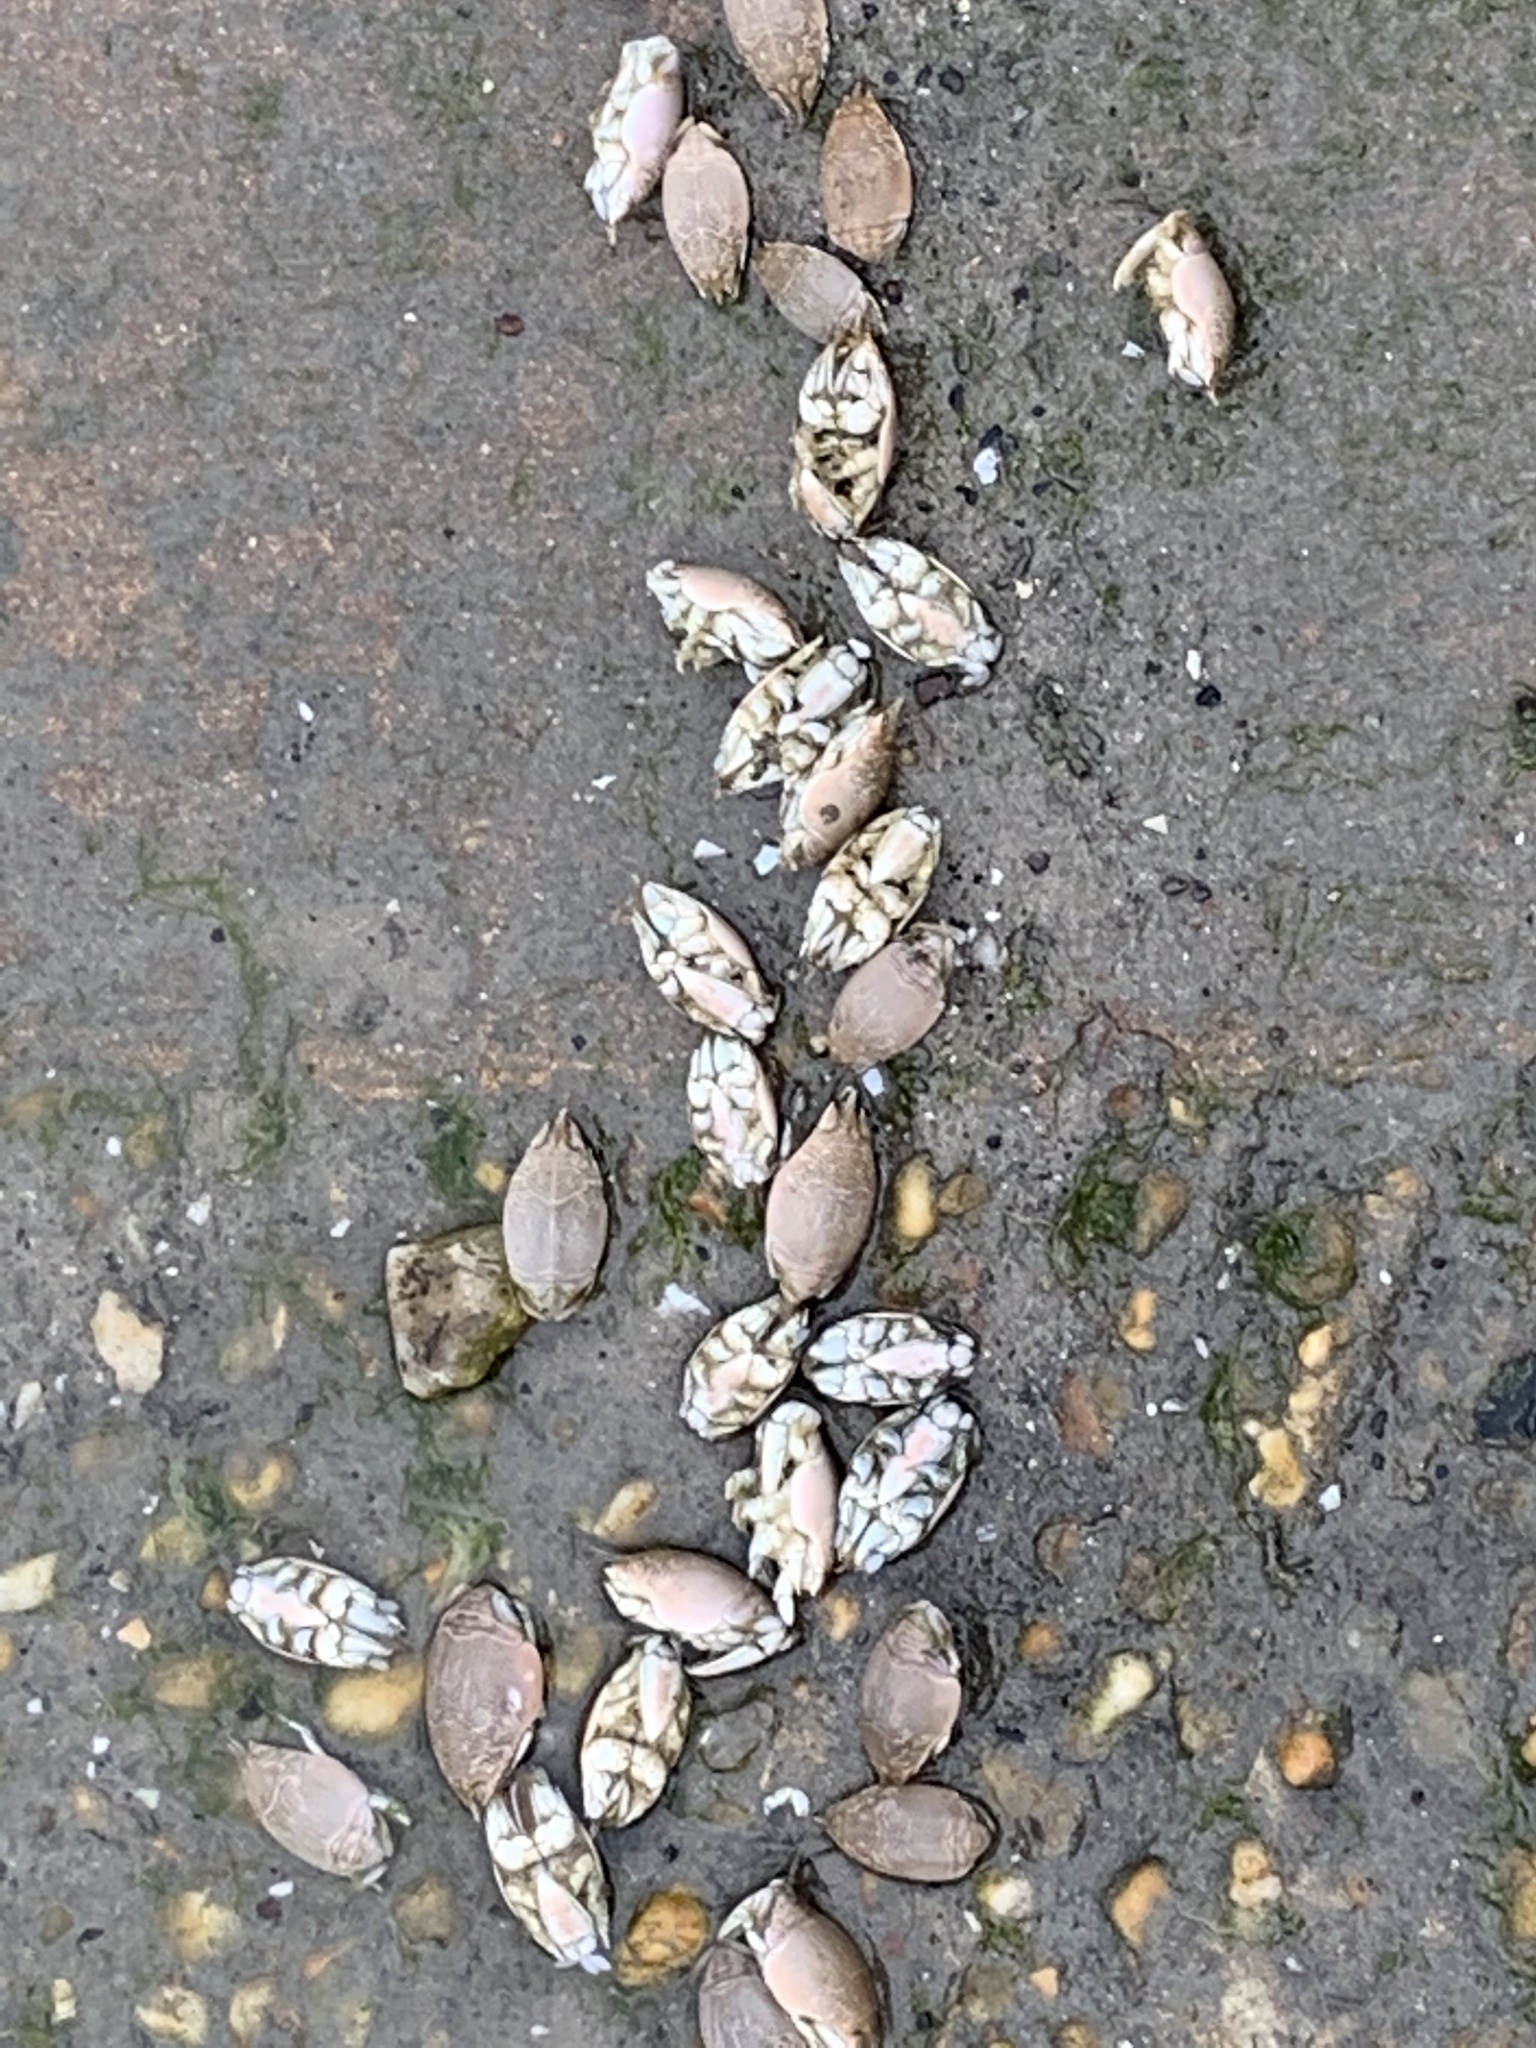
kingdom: Animalia
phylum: Arthropoda
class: Malacostraca
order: Decapoda
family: Hippidae
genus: Emerita
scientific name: Emerita talpoida
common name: Atlantic sand crab
